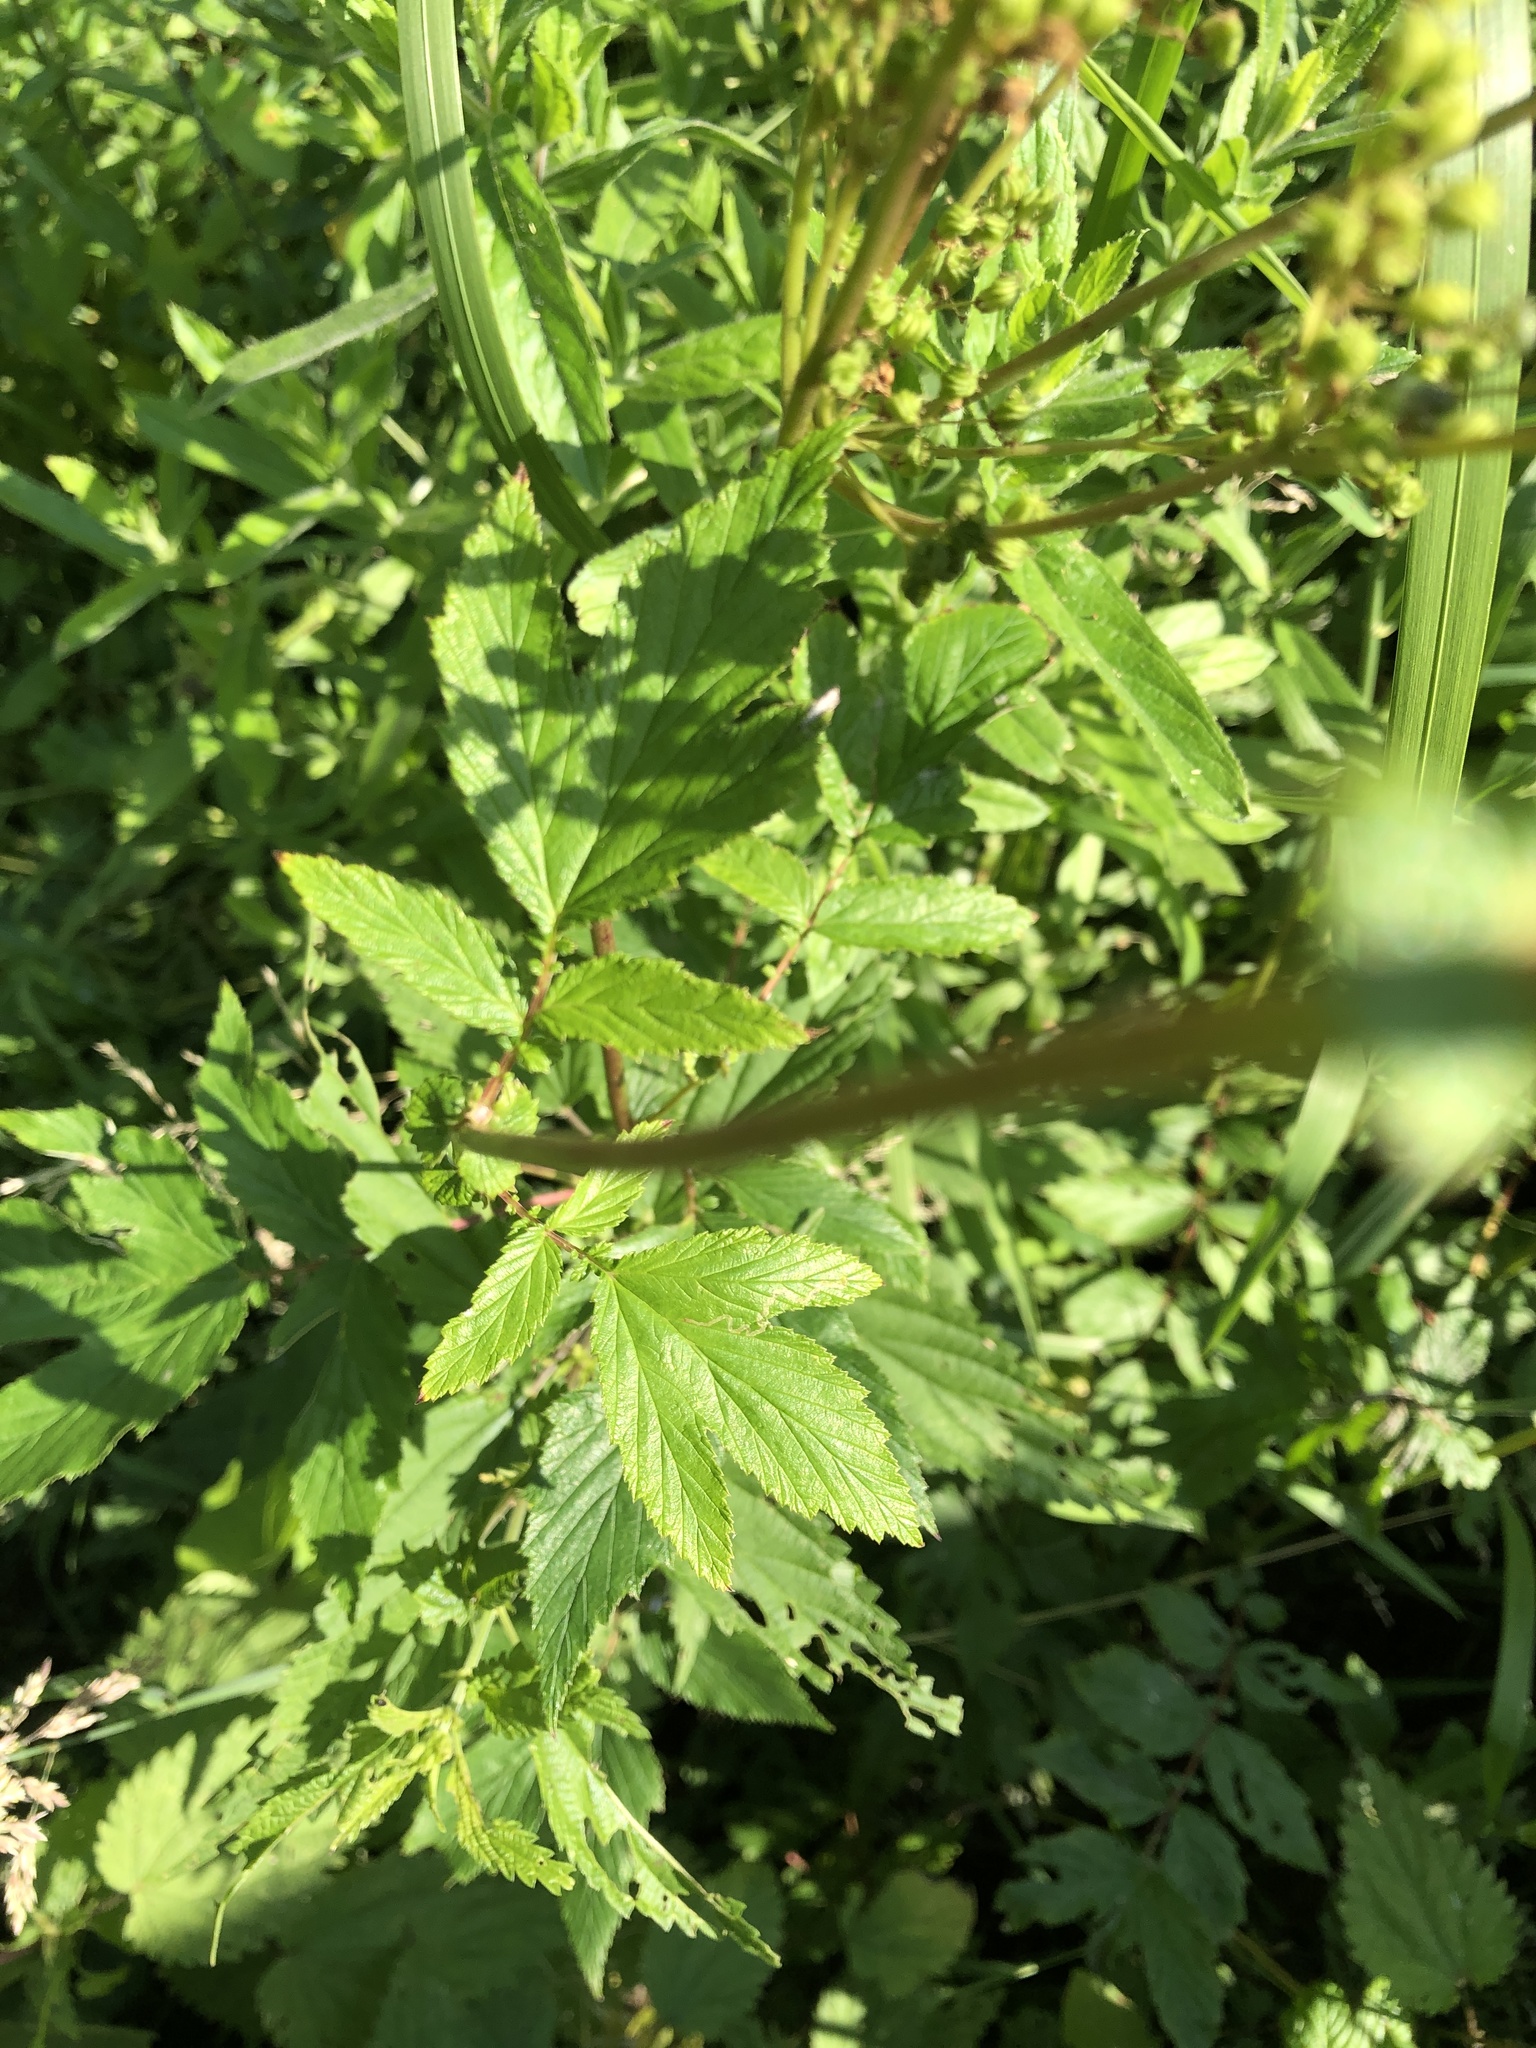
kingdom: Plantae
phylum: Tracheophyta
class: Magnoliopsida
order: Rosales
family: Rosaceae
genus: Filipendula
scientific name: Filipendula ulmaria
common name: Meadowsweet
